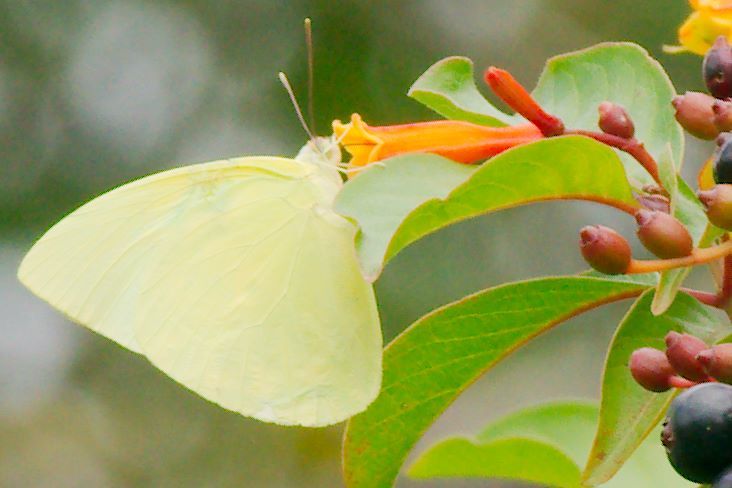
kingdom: Animalia
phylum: Arthropoda
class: Insecta
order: Lepidoptera
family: Pieridae
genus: Aphrissa
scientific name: Aphrissa statira
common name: Statira sulphur
